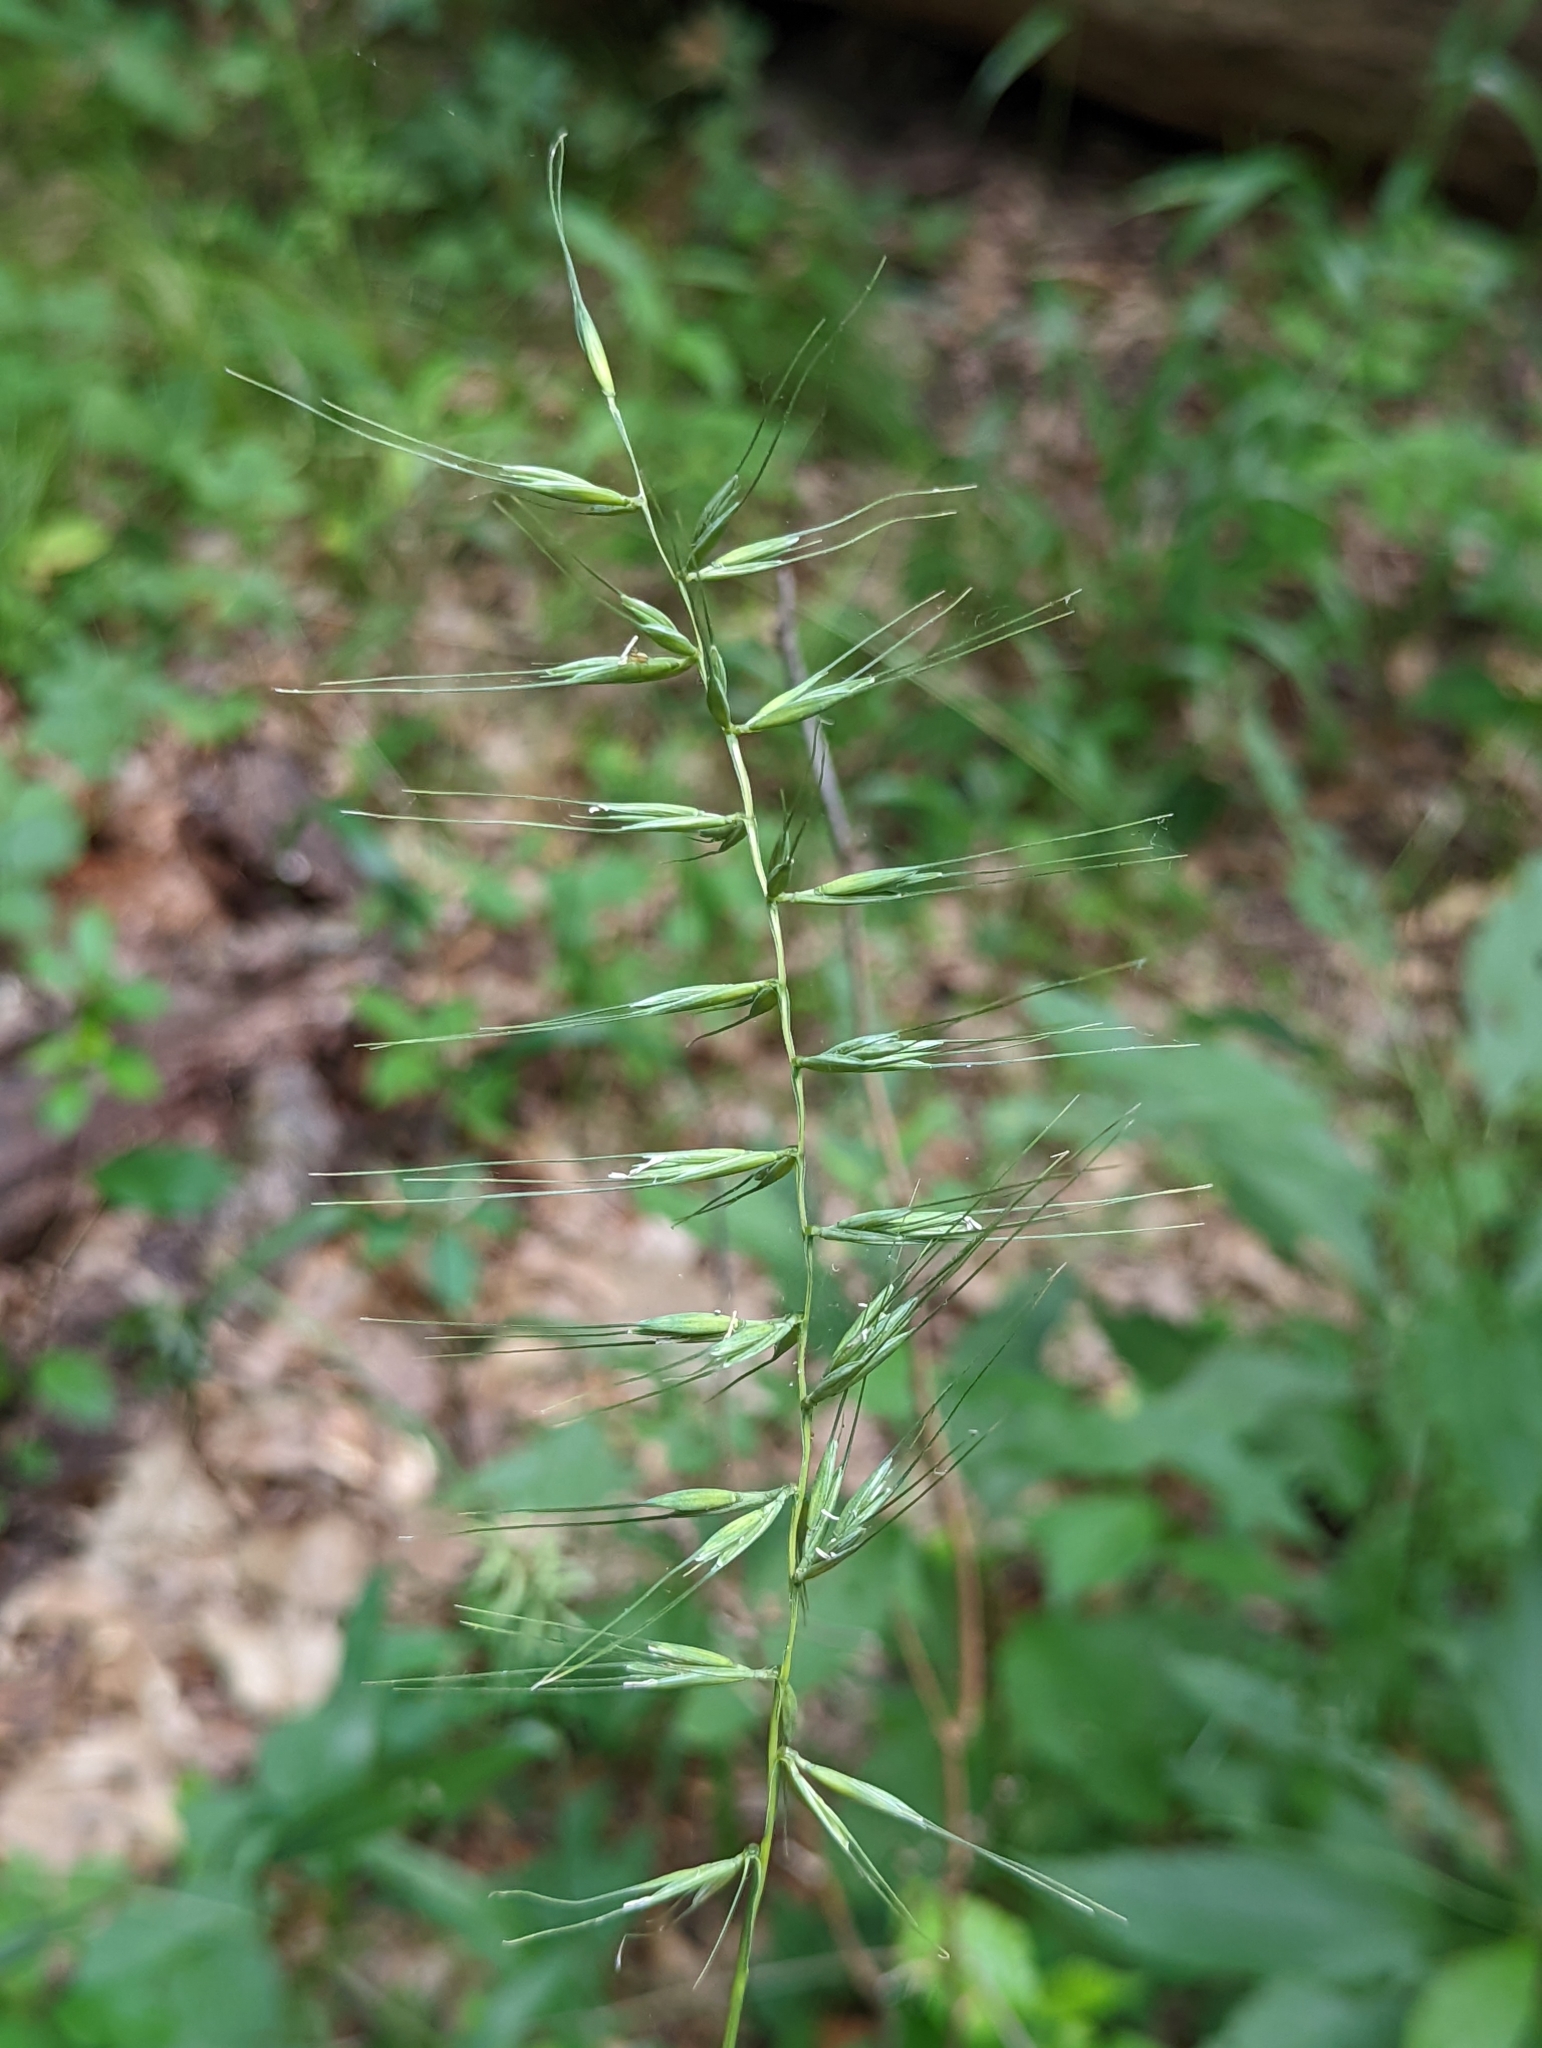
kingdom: Plantae
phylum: Tracheophyta
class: Liliopsida
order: Poales
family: Poaceae
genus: Elymus
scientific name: Elymus hystrix
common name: Bottlebrush grass
